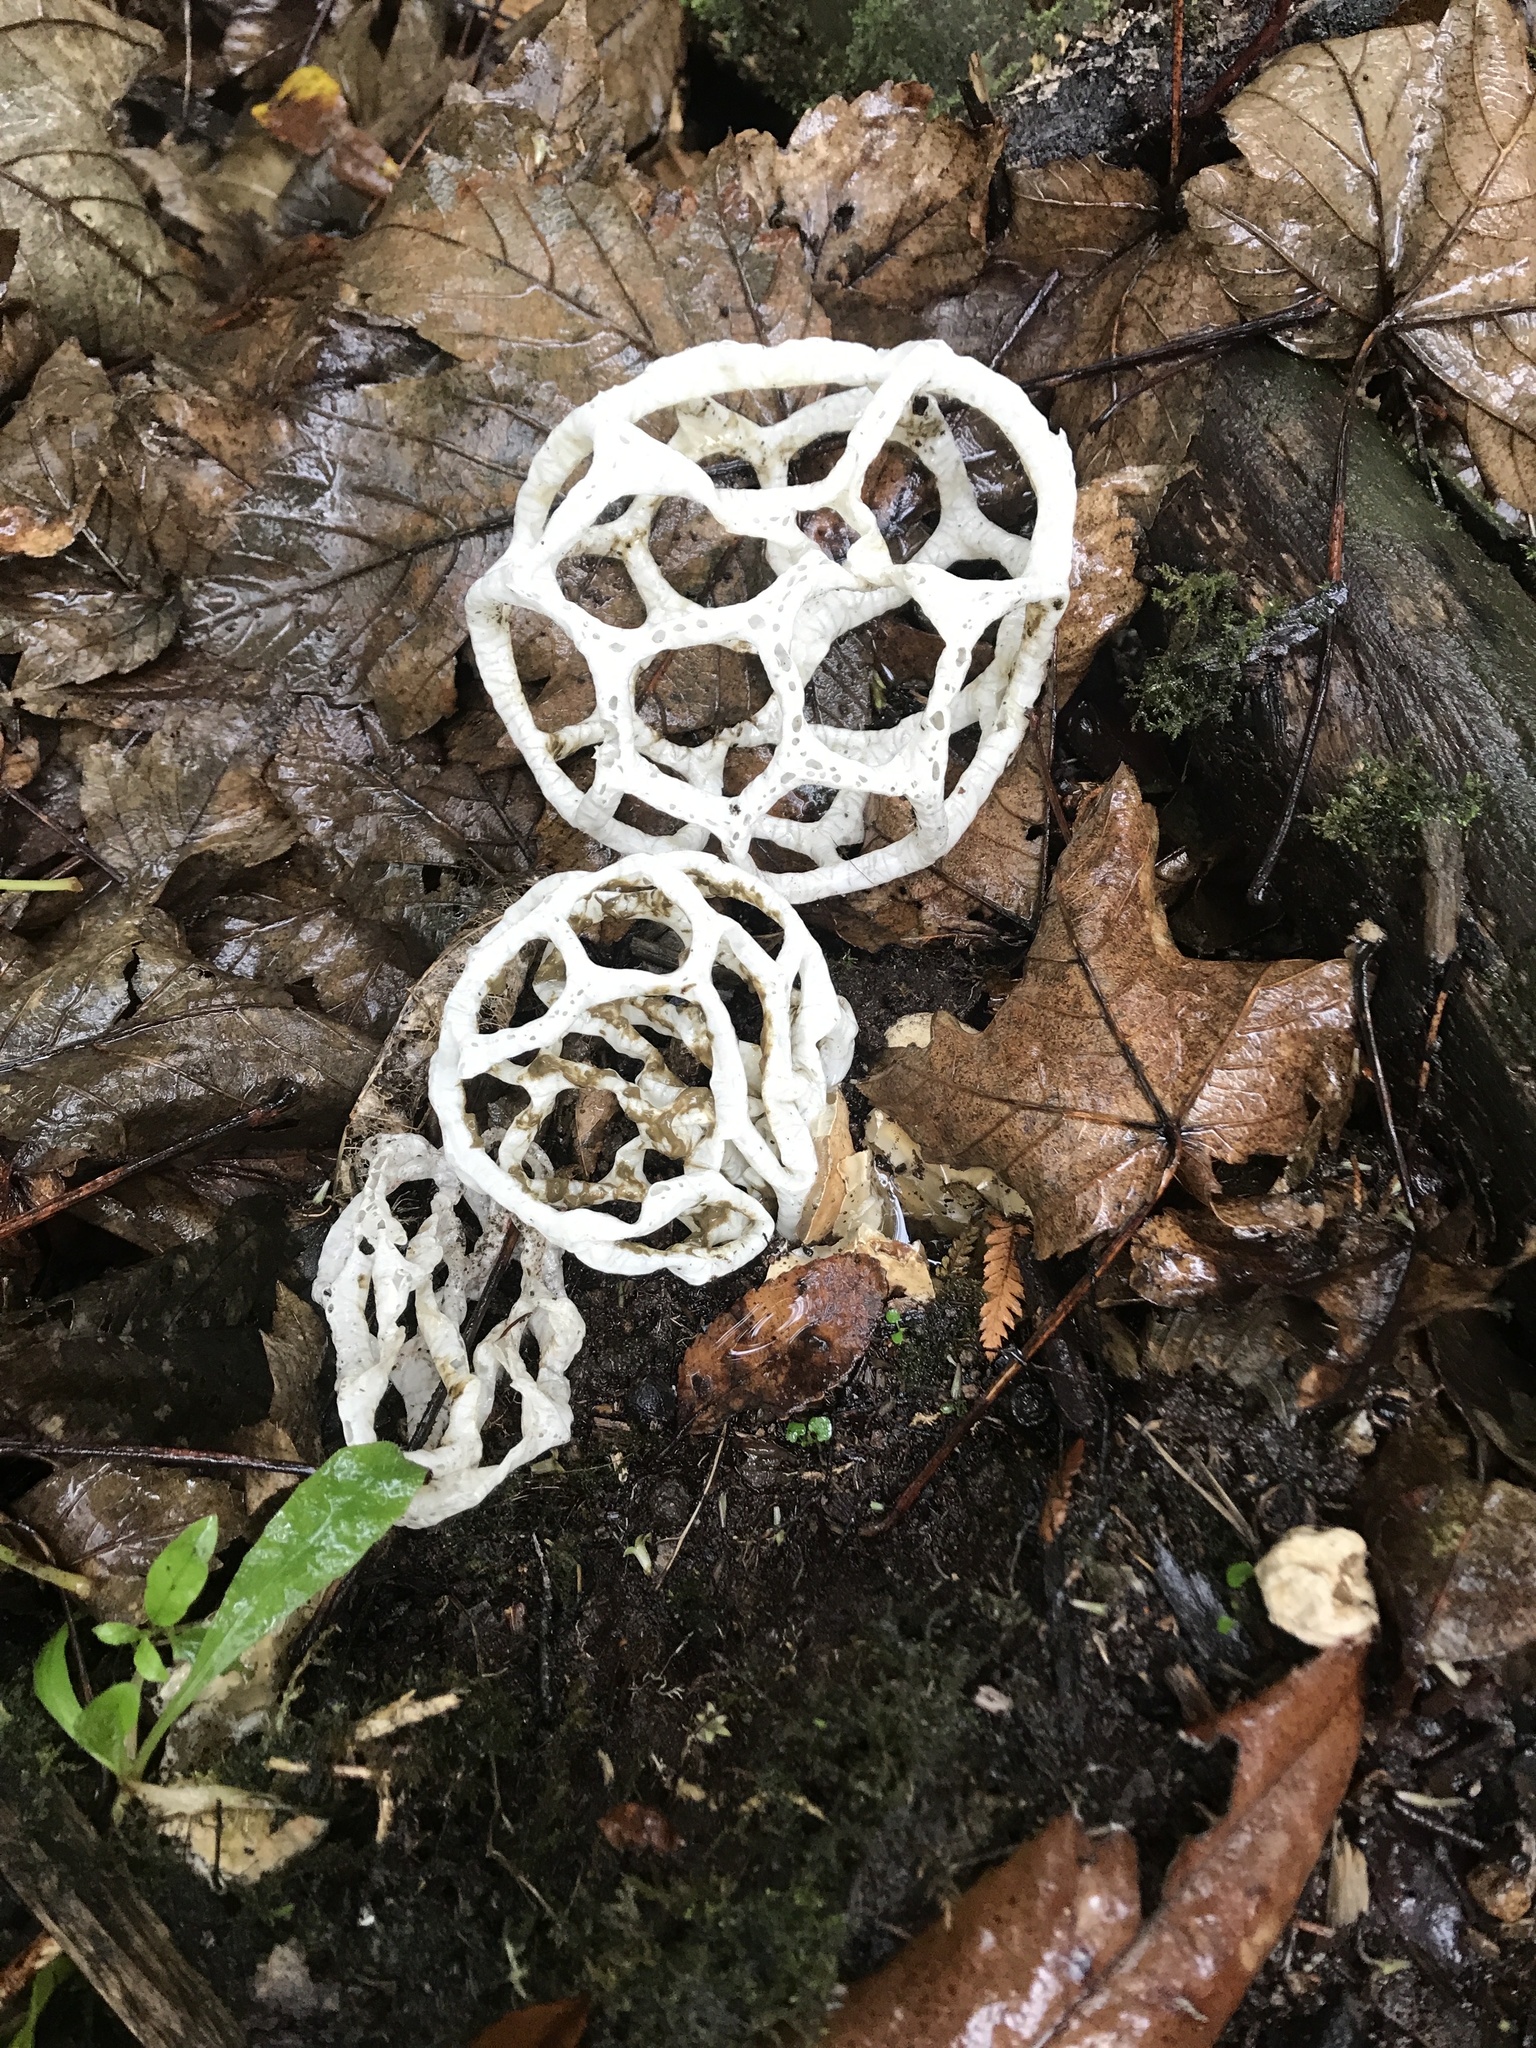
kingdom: Fungi
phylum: Basidiomycota
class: Agaricomycetes
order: Phallales
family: Phallaceae
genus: Ileodictyon
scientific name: Ileodictyon cibarium
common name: Basket fungus
